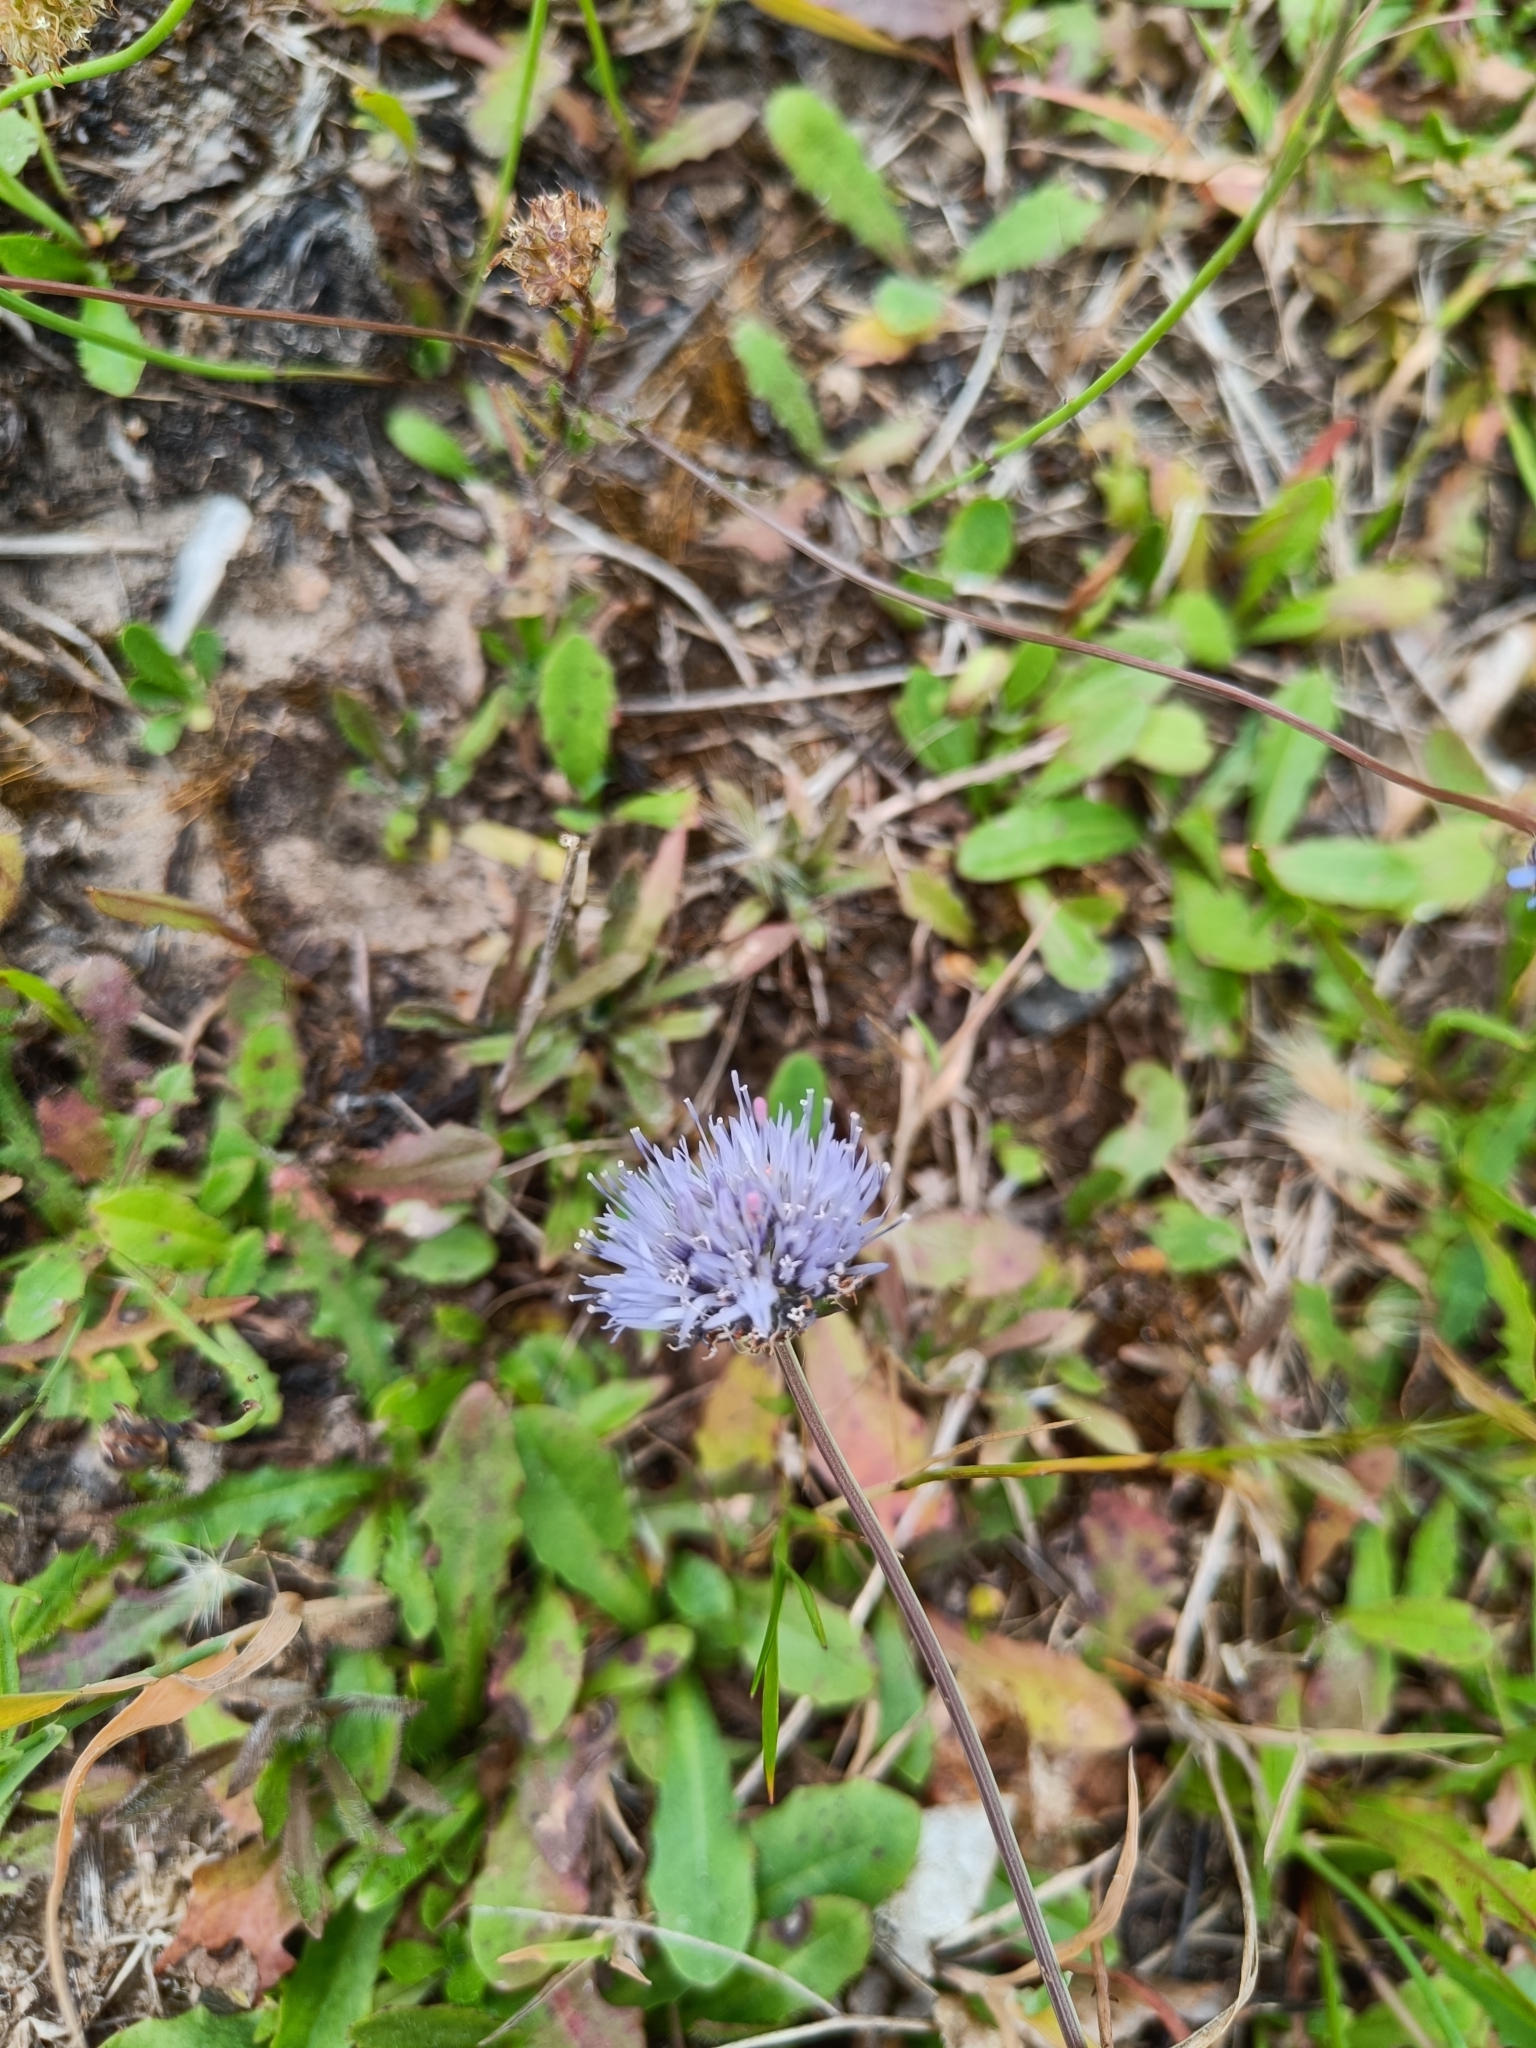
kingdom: Plantae
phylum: Tracheophyta
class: Magnoliopsida
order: Asterales
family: Campanulaceae
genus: Jasione
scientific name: Jasione montana
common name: Sheep's-bit
